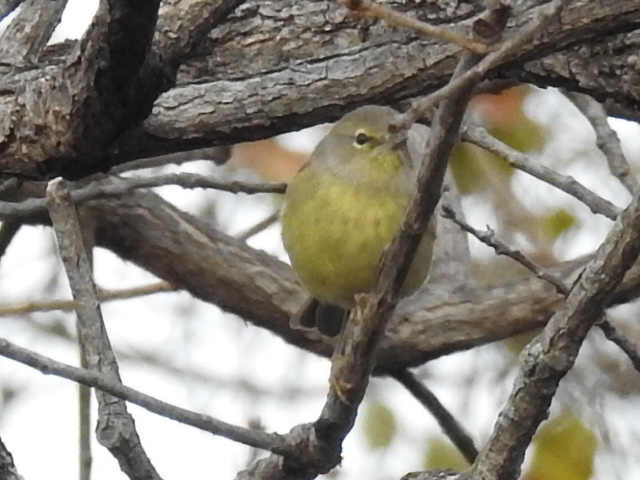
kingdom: Animalia
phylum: Chordata
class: Aves
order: Passeriformes
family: Parulidae
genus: Leiothlypis
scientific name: Leiothlypis celata
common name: Orange-crowned warbler
